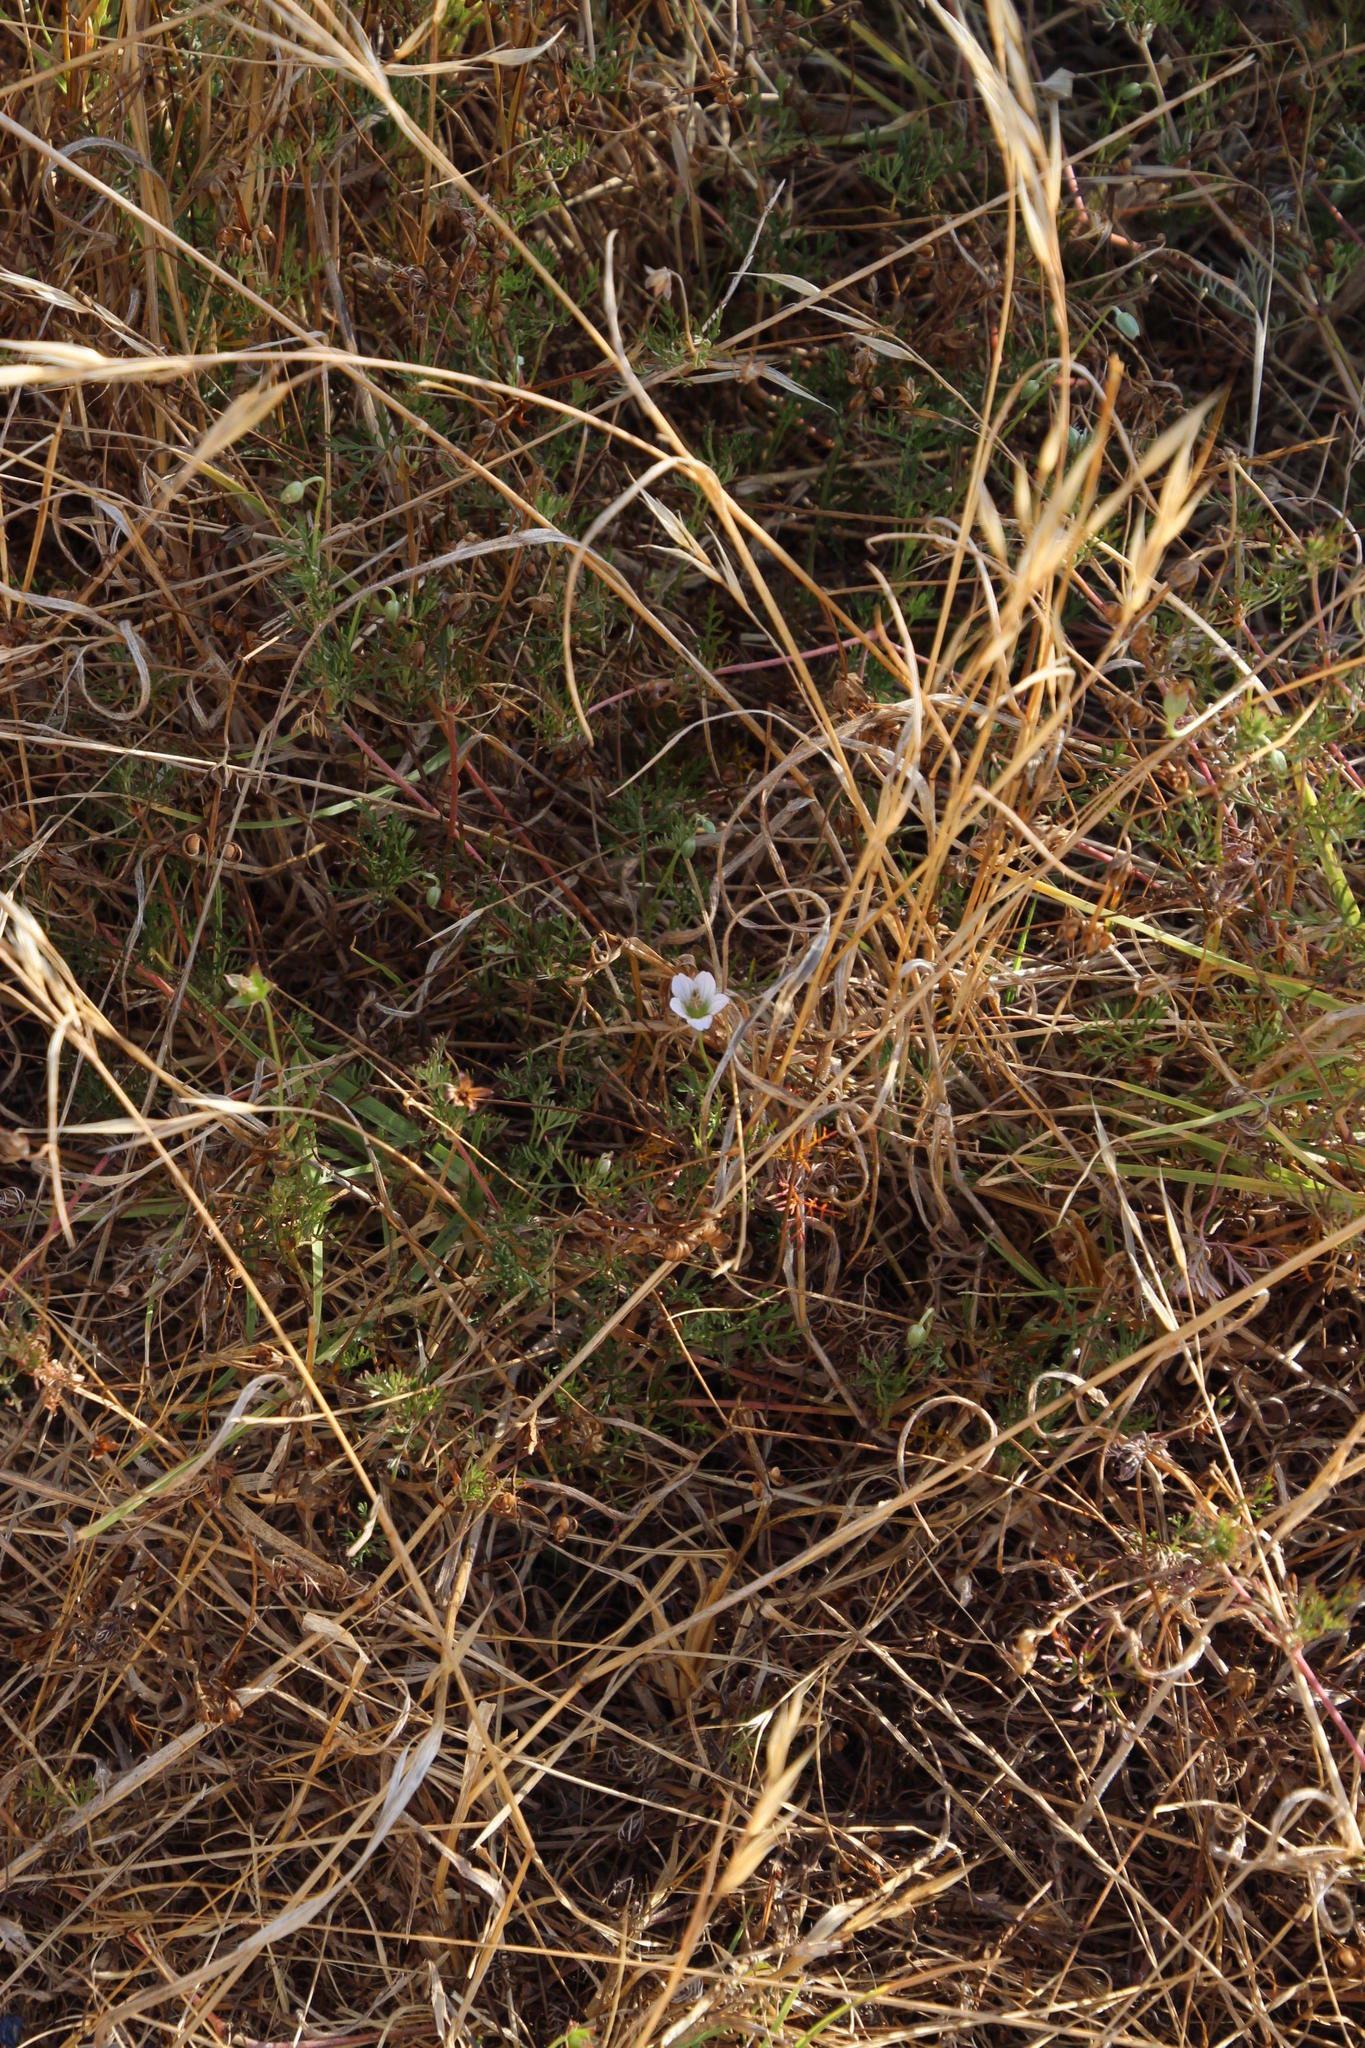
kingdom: Plantae
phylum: Tracheophyta
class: Magnoliopsida
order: Geraniales
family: Geraniaceae
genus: Geranium
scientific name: Geranium incanum
